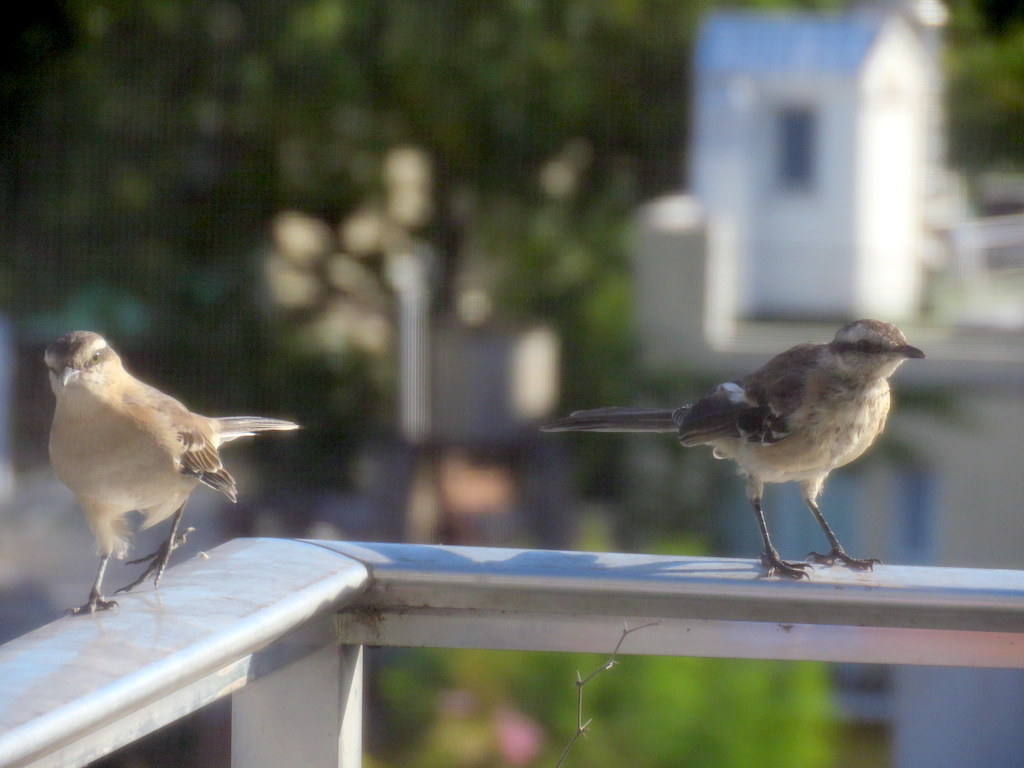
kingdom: Animalia
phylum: Chordata
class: Aves
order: Passeriformes
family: Mimidae
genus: Mimus
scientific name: Mimus saturninus
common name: Chalk-browed mockingbird
